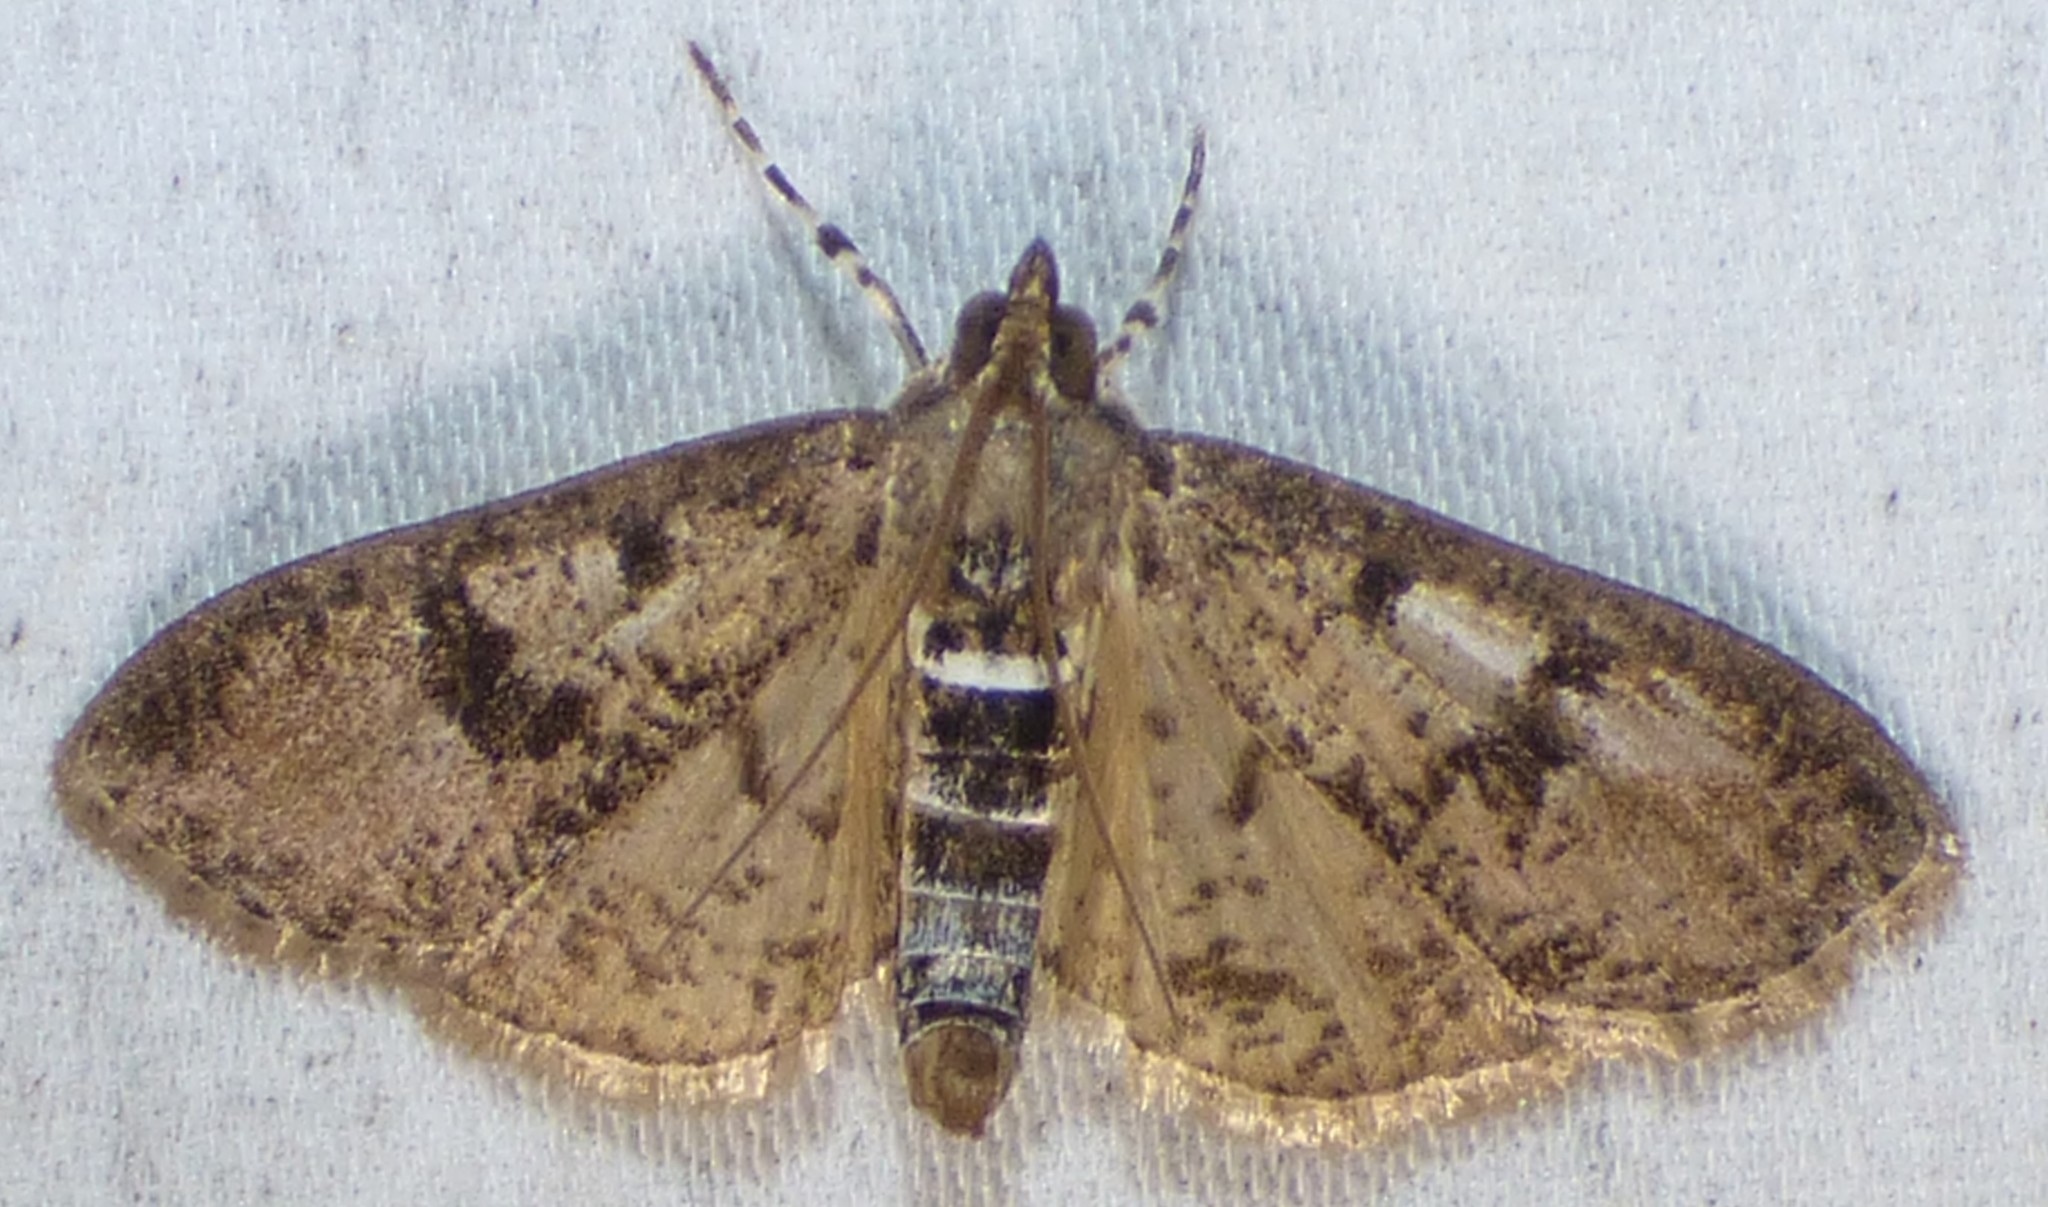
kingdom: Animalia
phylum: Arthropoda
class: Insecta
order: Lepidoptera
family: Crambidae
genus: Palpita
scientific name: Palpita magniferalis
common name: Splendid palpita moth
